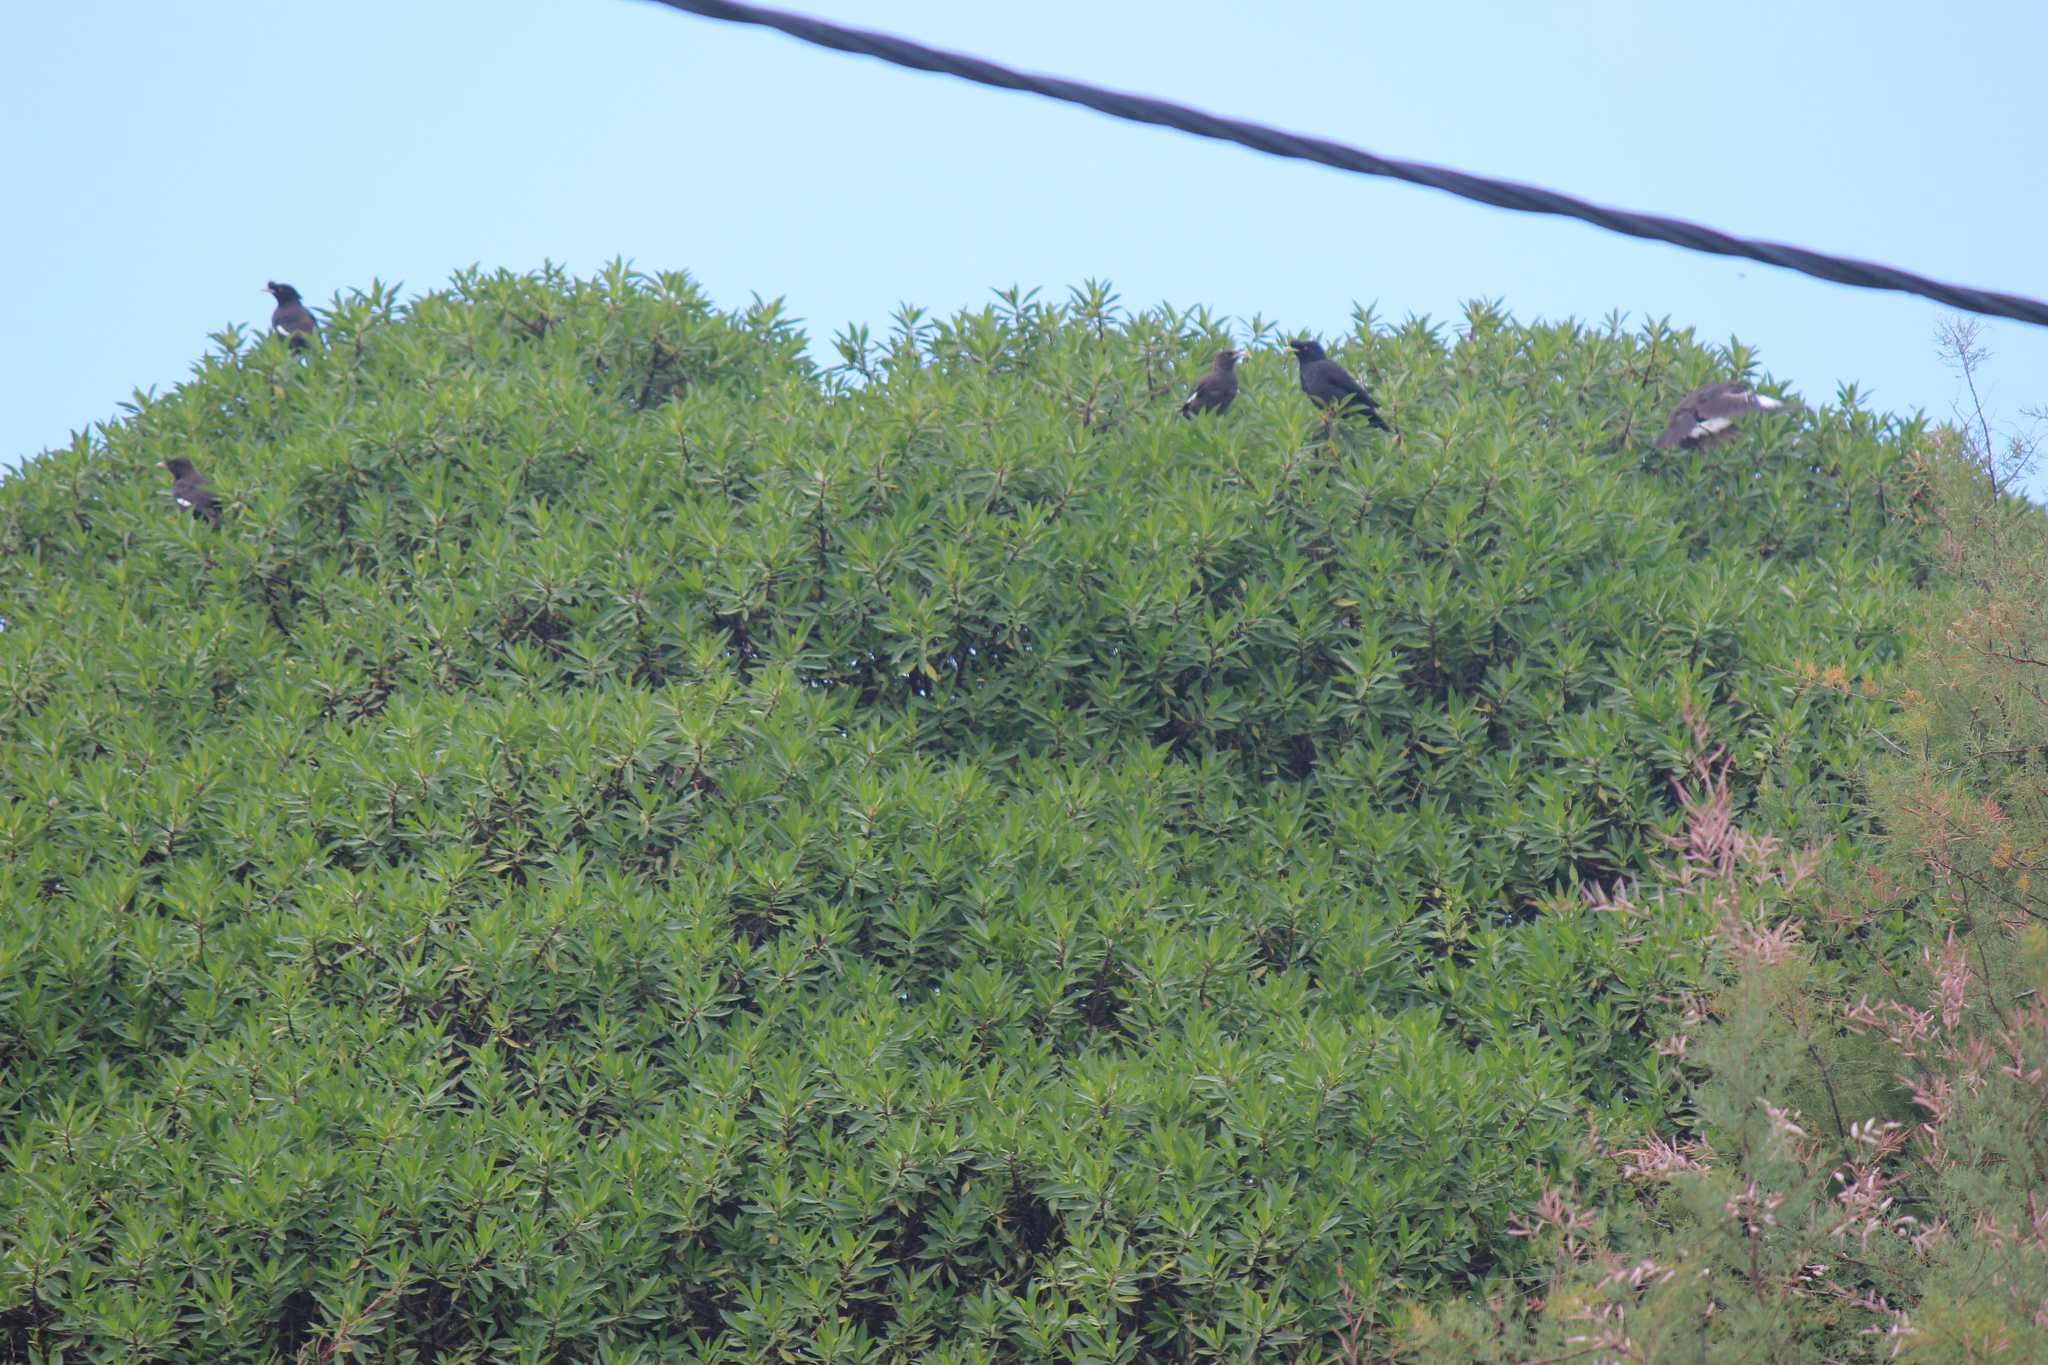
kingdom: Animalia
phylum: Chordata
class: Aves
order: Passeriformes
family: Sturnidae
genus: Acridotheres
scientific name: Acridotheres cristatellus
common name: Crested myna
